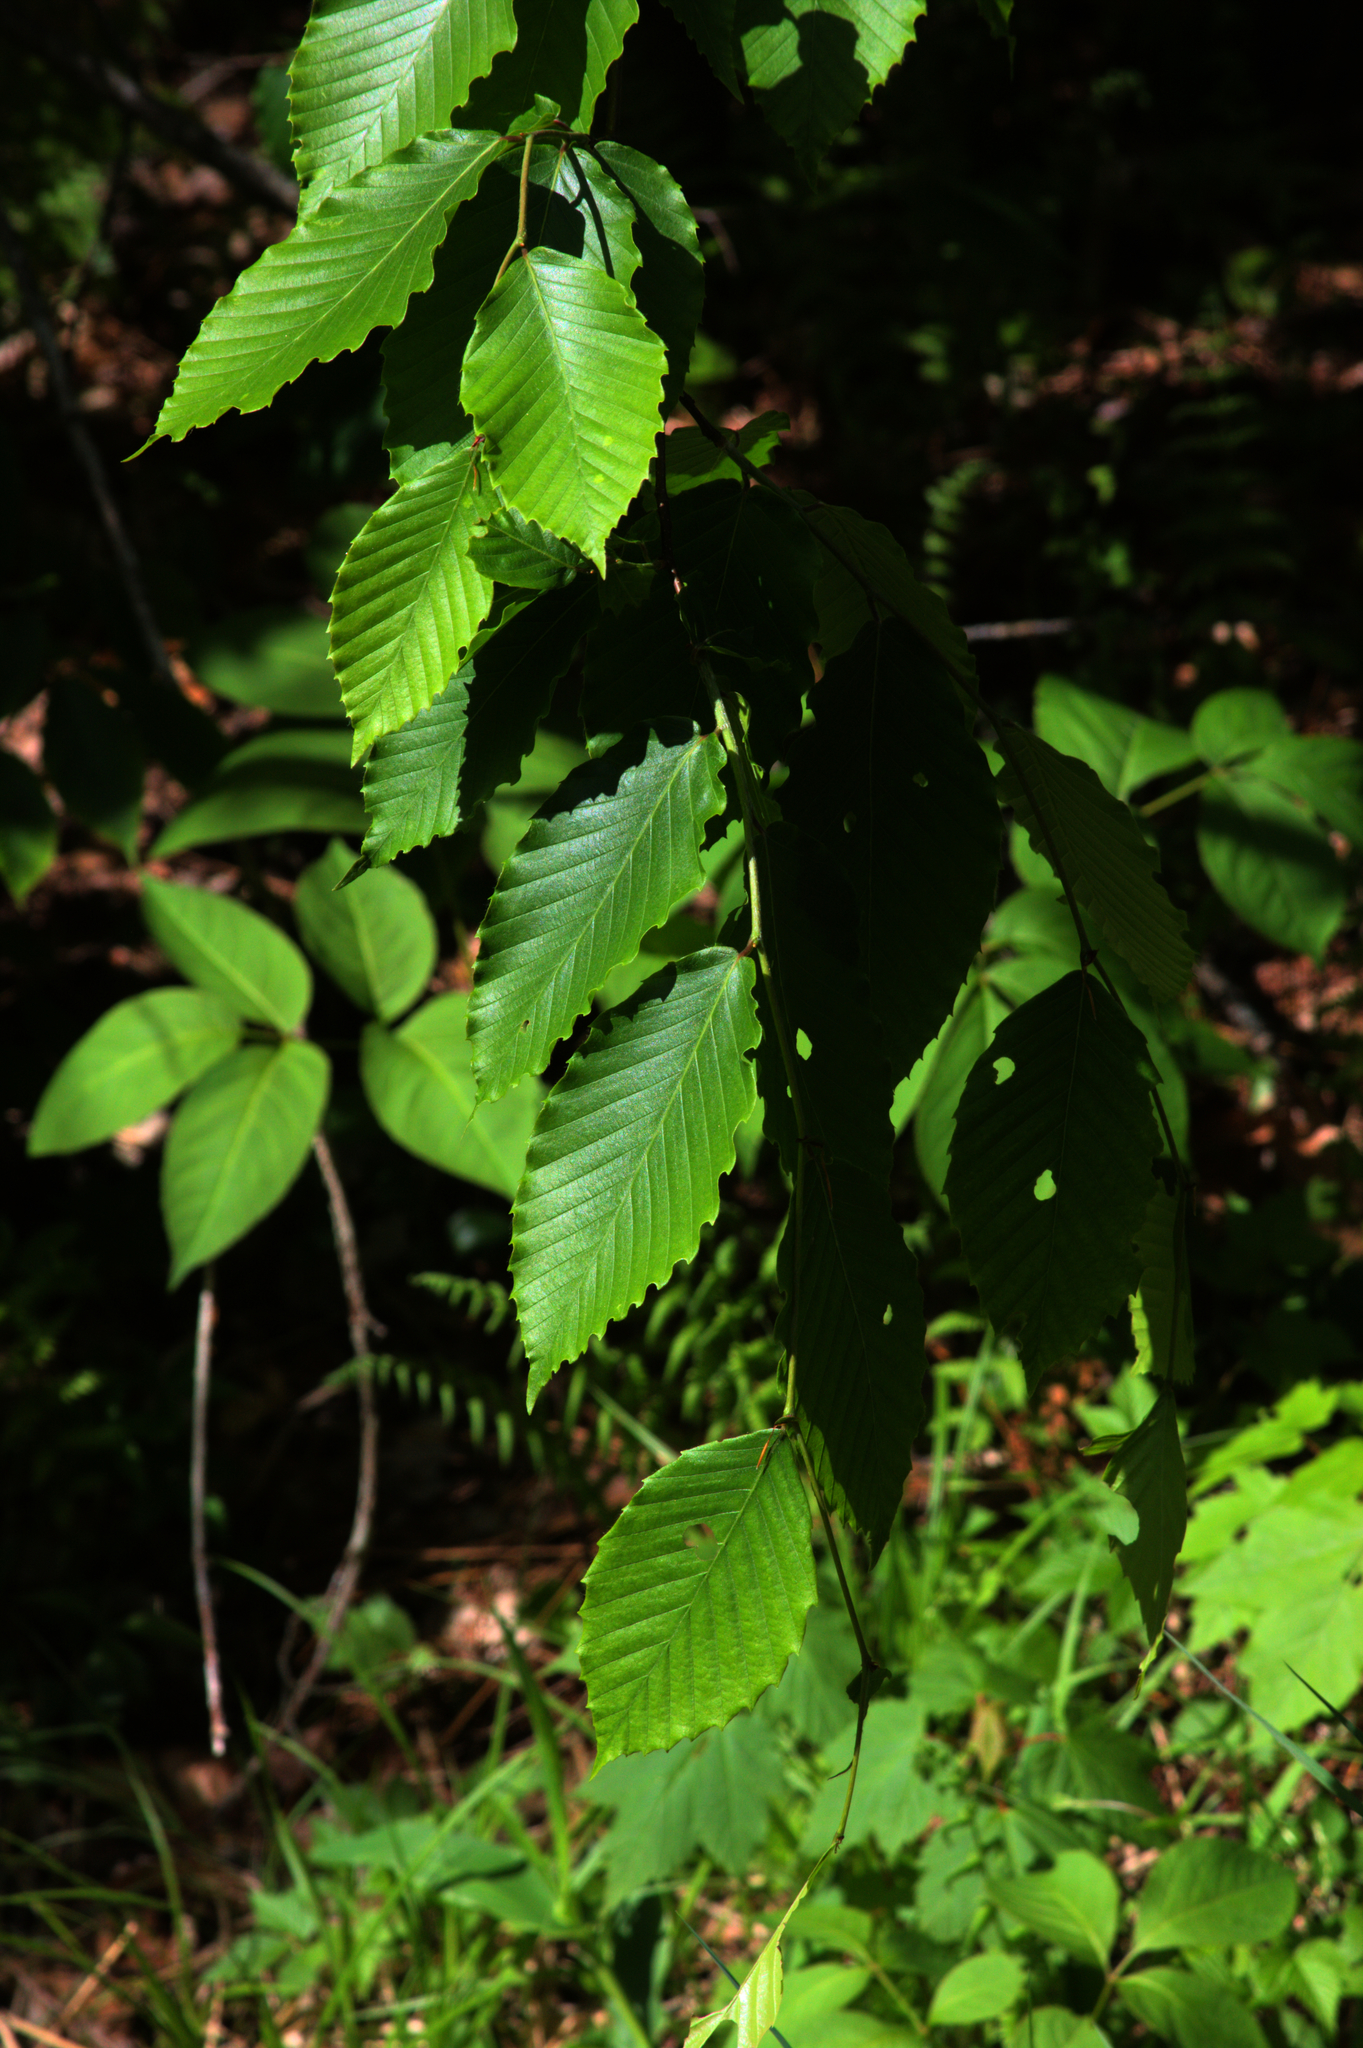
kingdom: Plantae
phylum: Tracheophyta
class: Magnoliopsida
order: Fagales
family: Fagaceae
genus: Fagus
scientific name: Fagus grandifolia
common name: American beech
